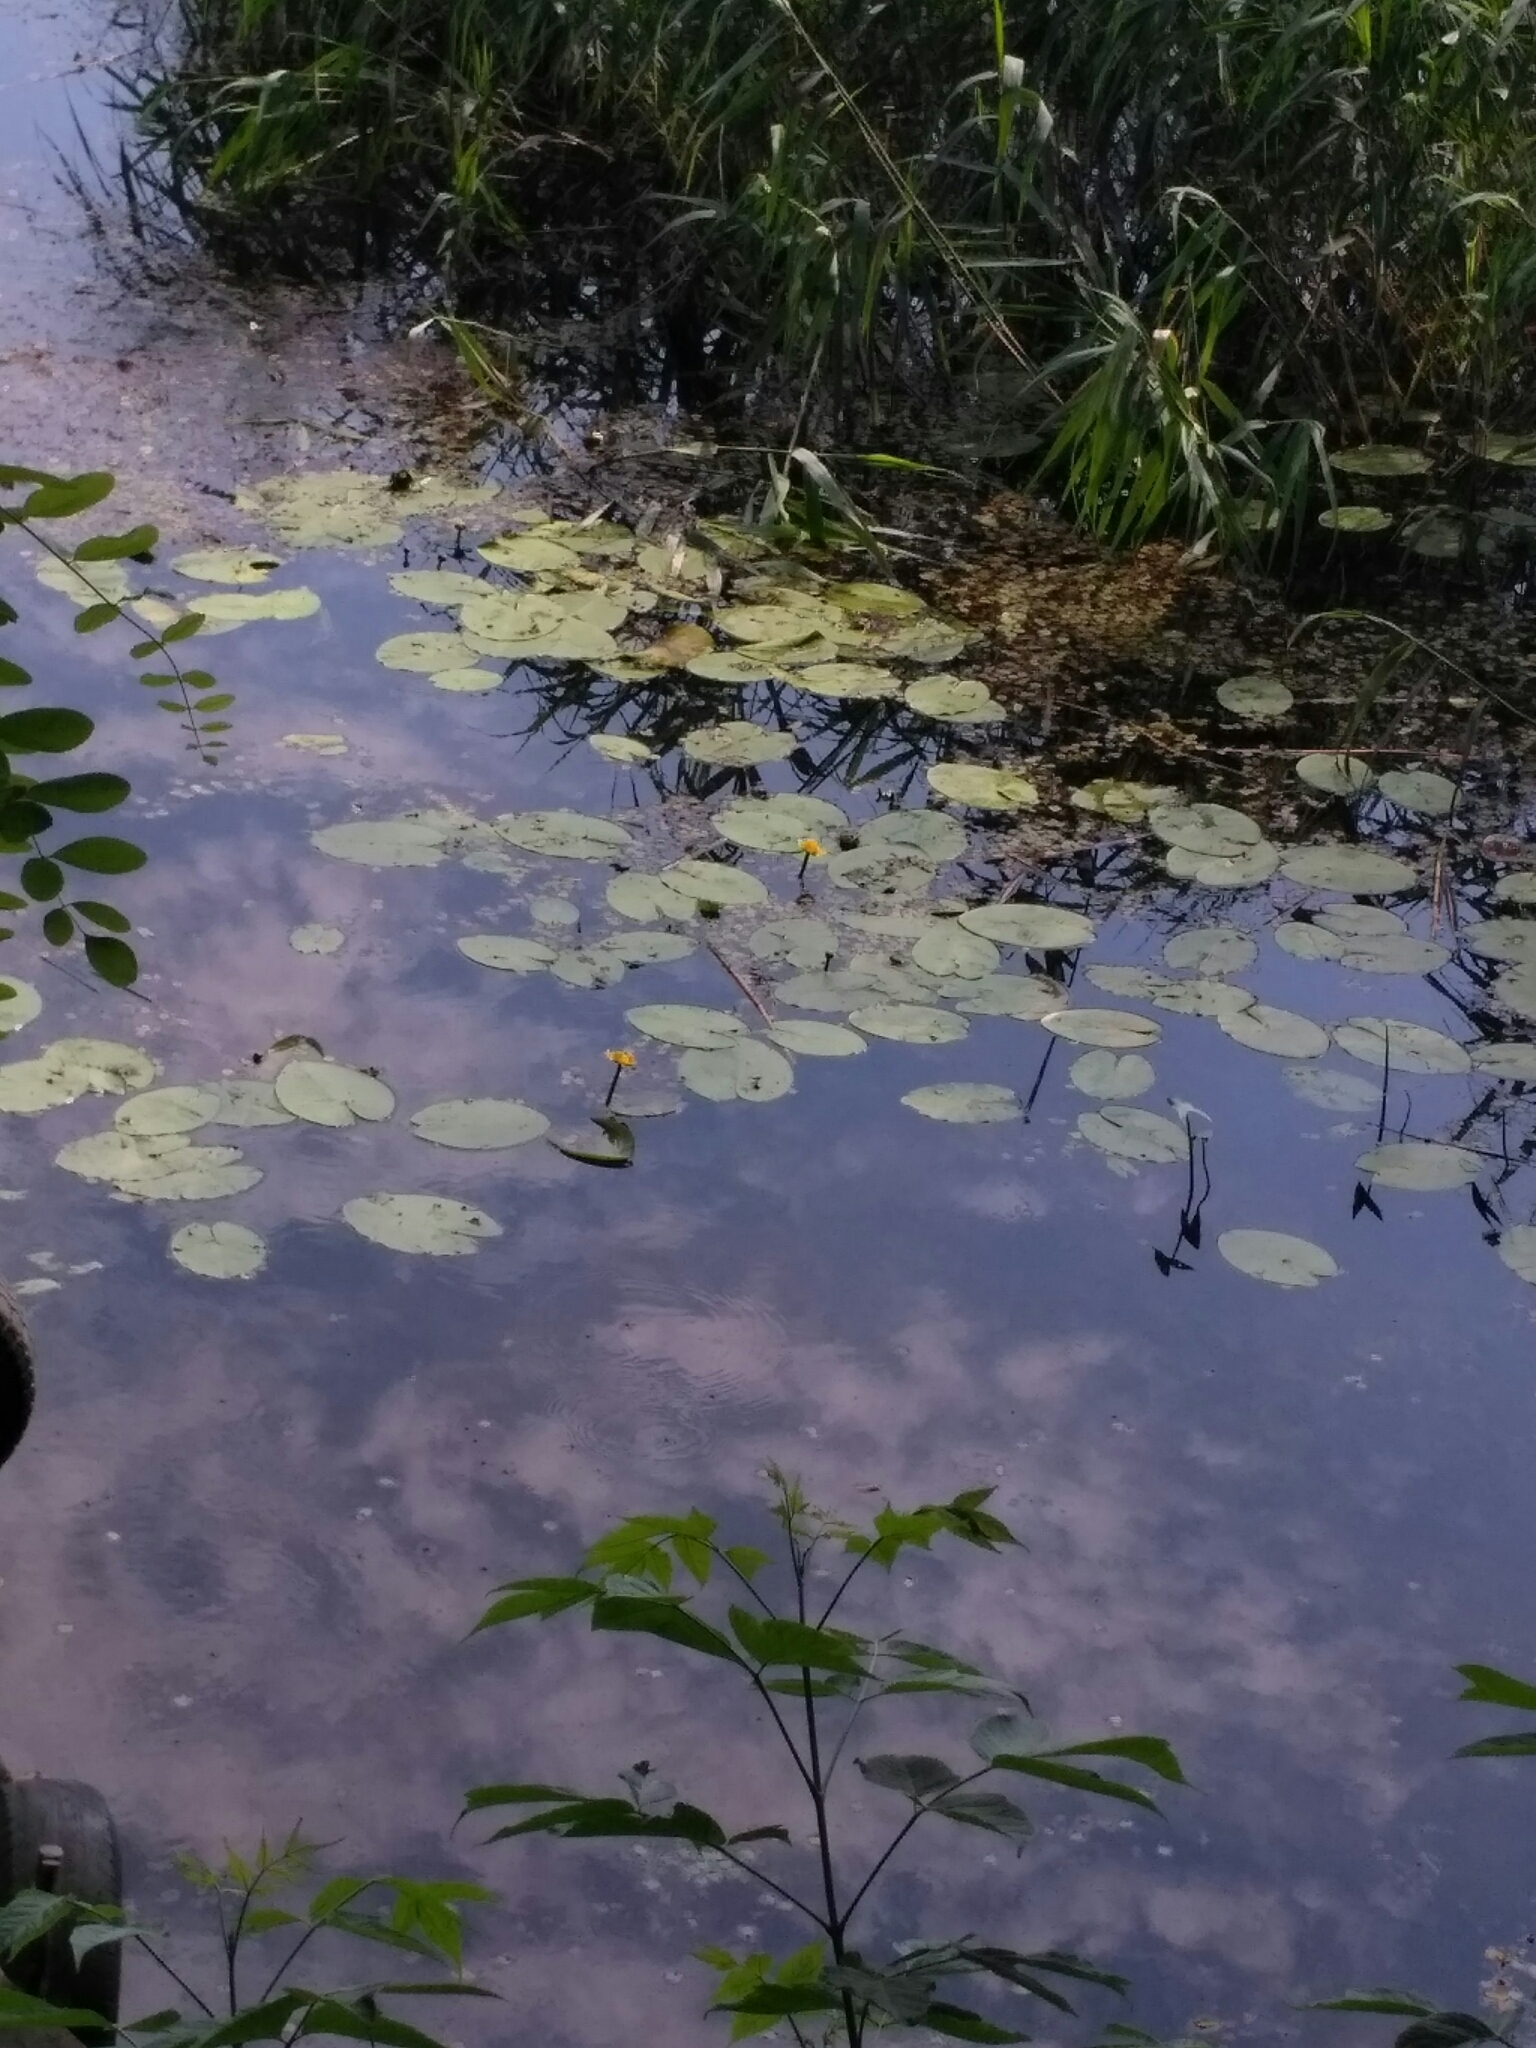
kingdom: Plantae
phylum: Tracheophyta
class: Magnoliopsida
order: Nymphaeales
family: Nymphaeaceae
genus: Nuphar
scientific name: Nuphar lutea
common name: Yellow water-lily
